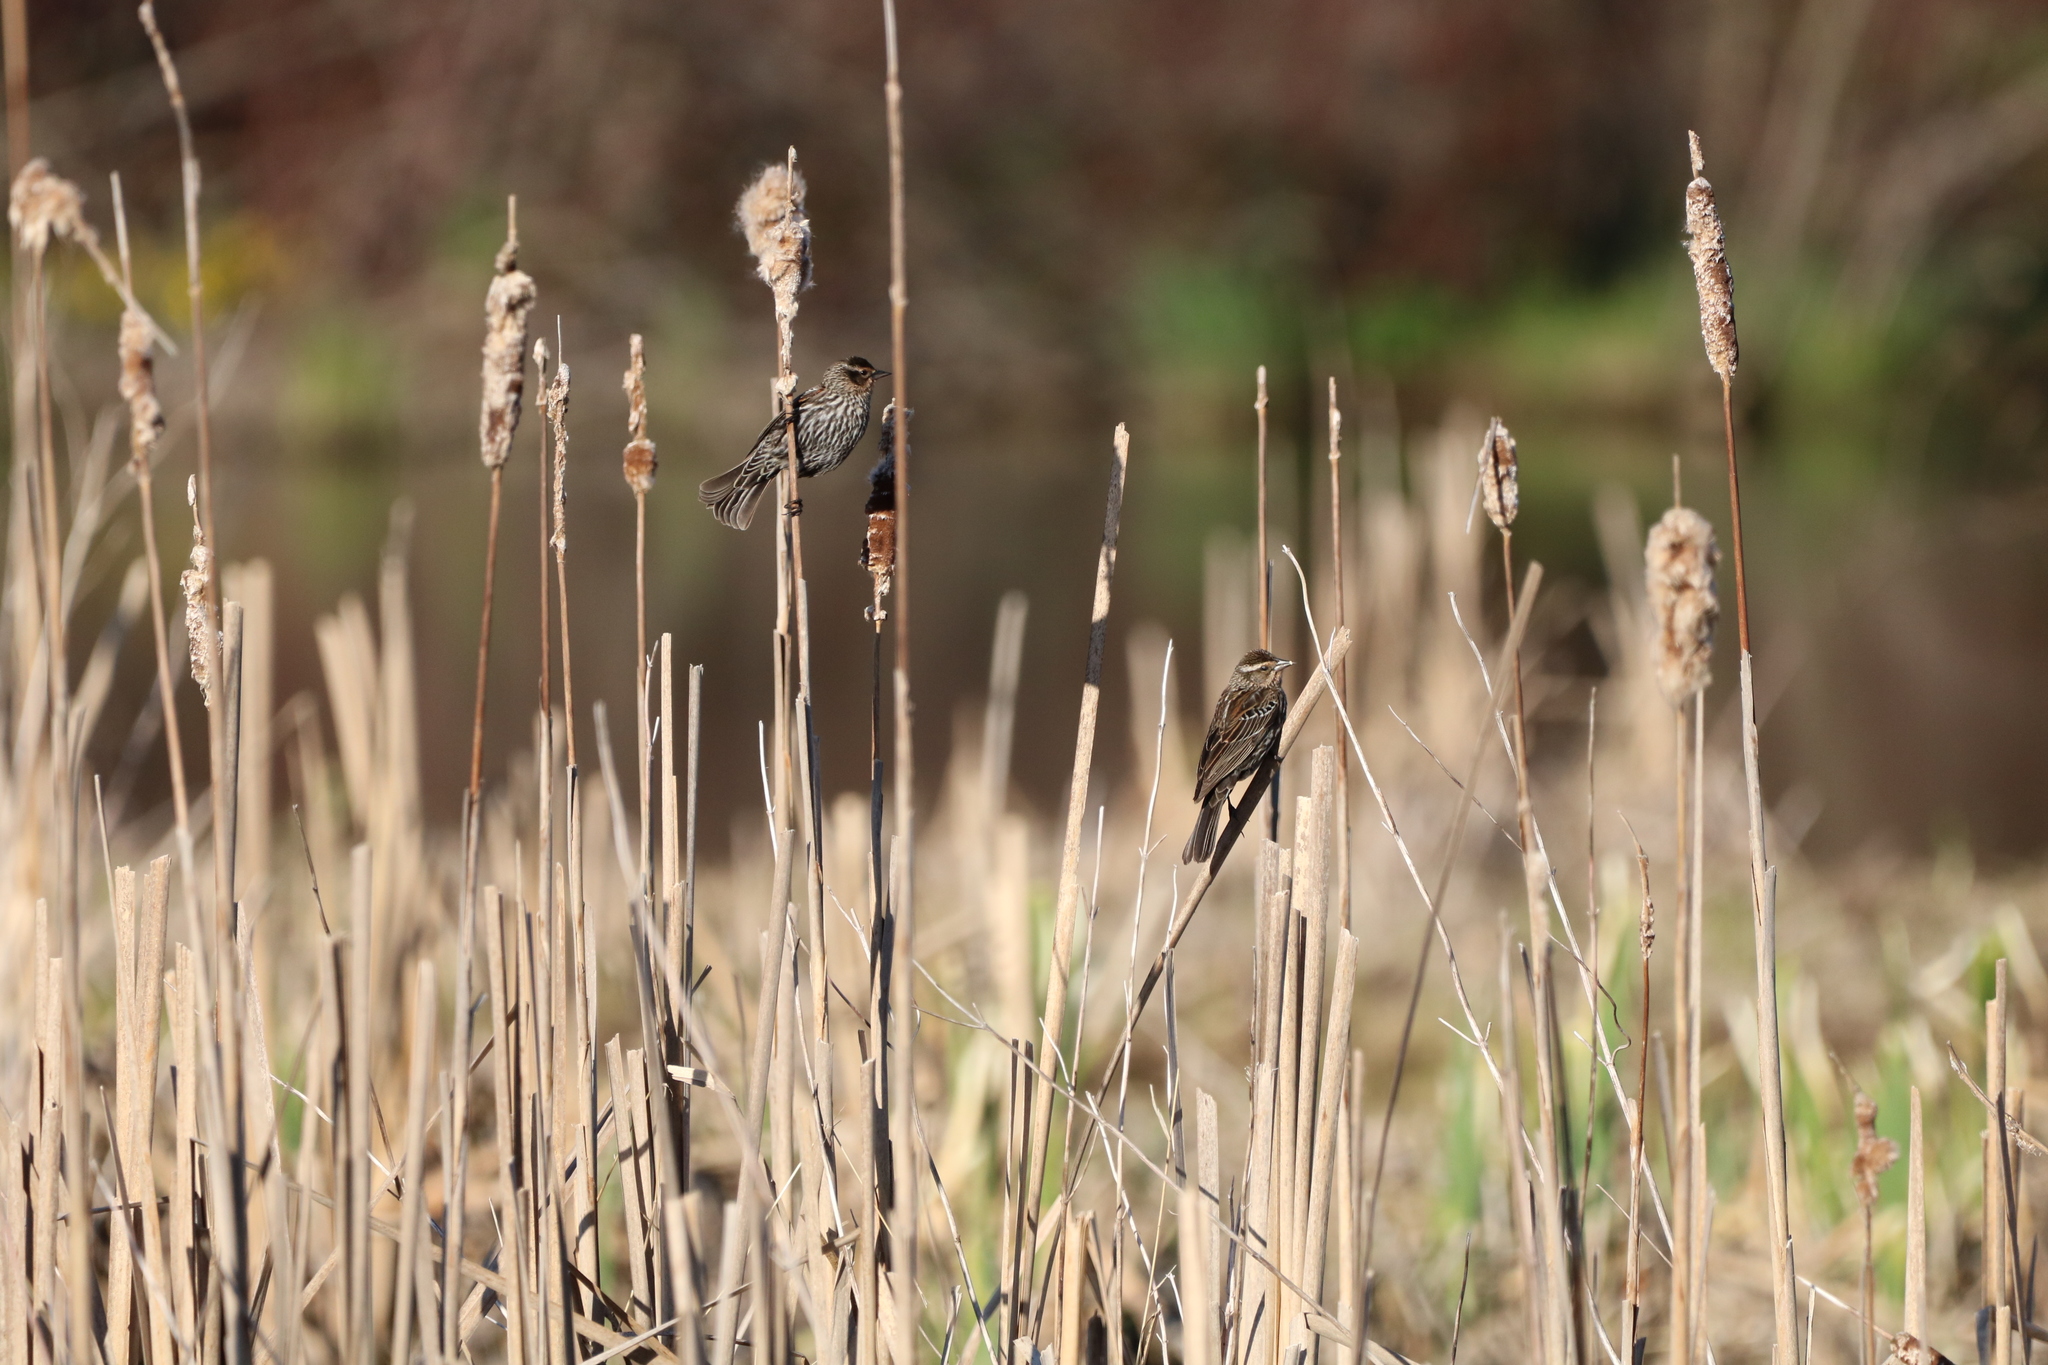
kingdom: Animalia
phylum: Chordata
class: Aves
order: Passeriformes
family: Icteridae
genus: Agelaius
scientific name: Agelaius phoeniceus
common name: Red-winged blackbird
